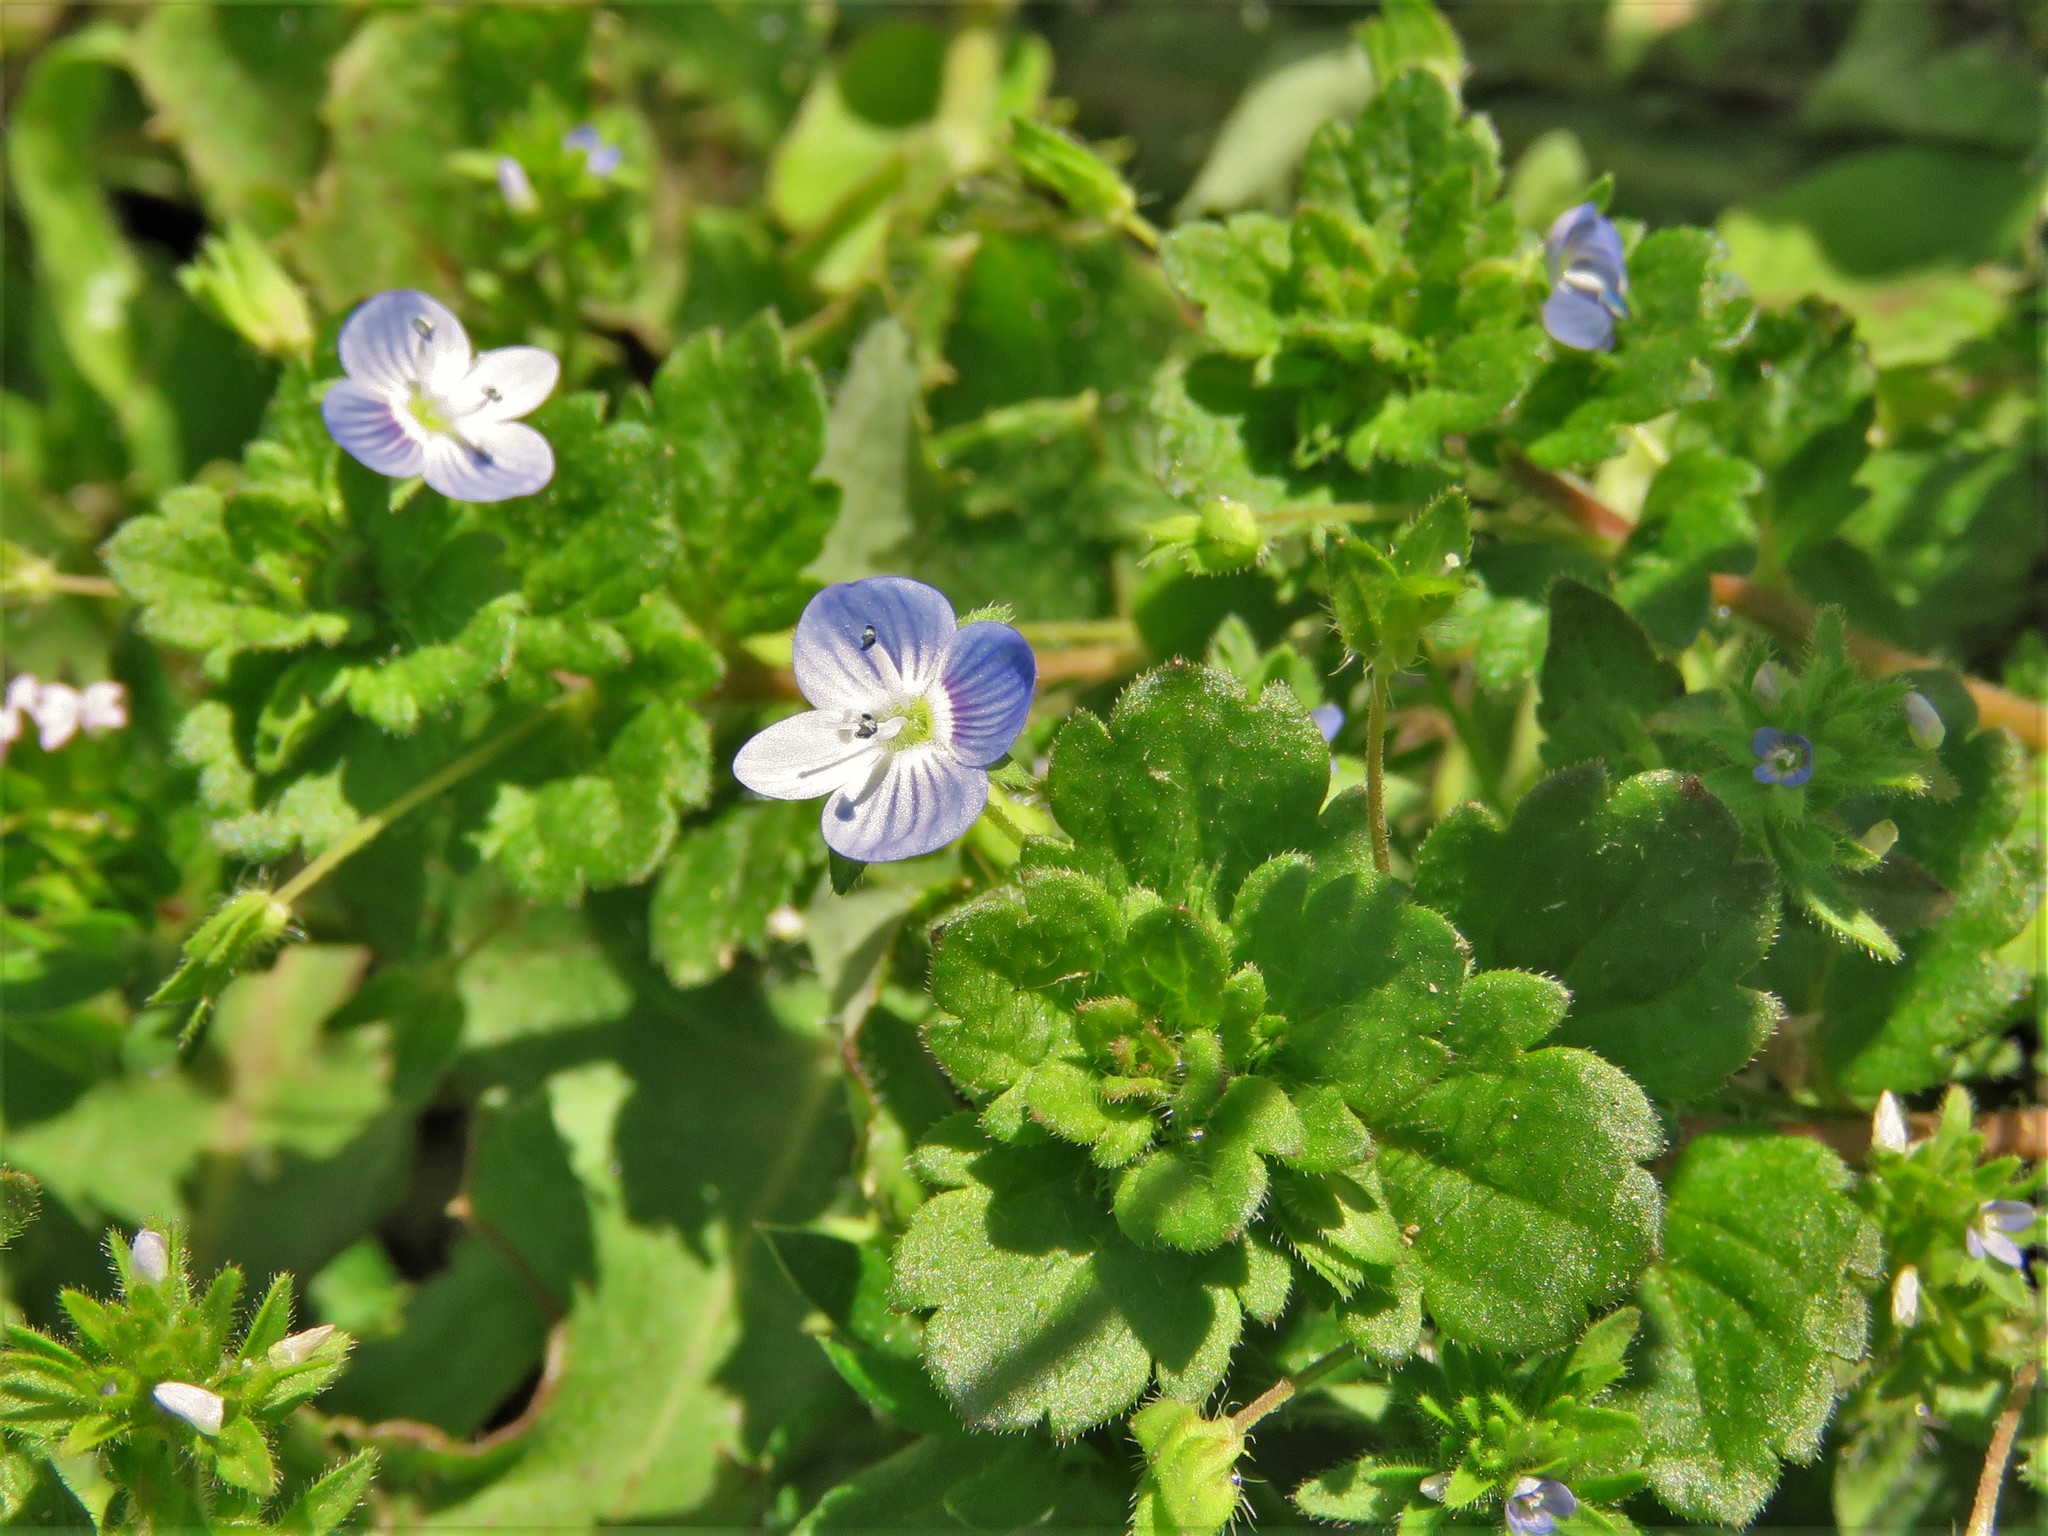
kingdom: Plantae
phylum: Tracheophyta
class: Magnoliopsida
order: Lamiales
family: Plantaginaceae
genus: Veronica
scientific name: Veronica persica
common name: Common field-speedwell
